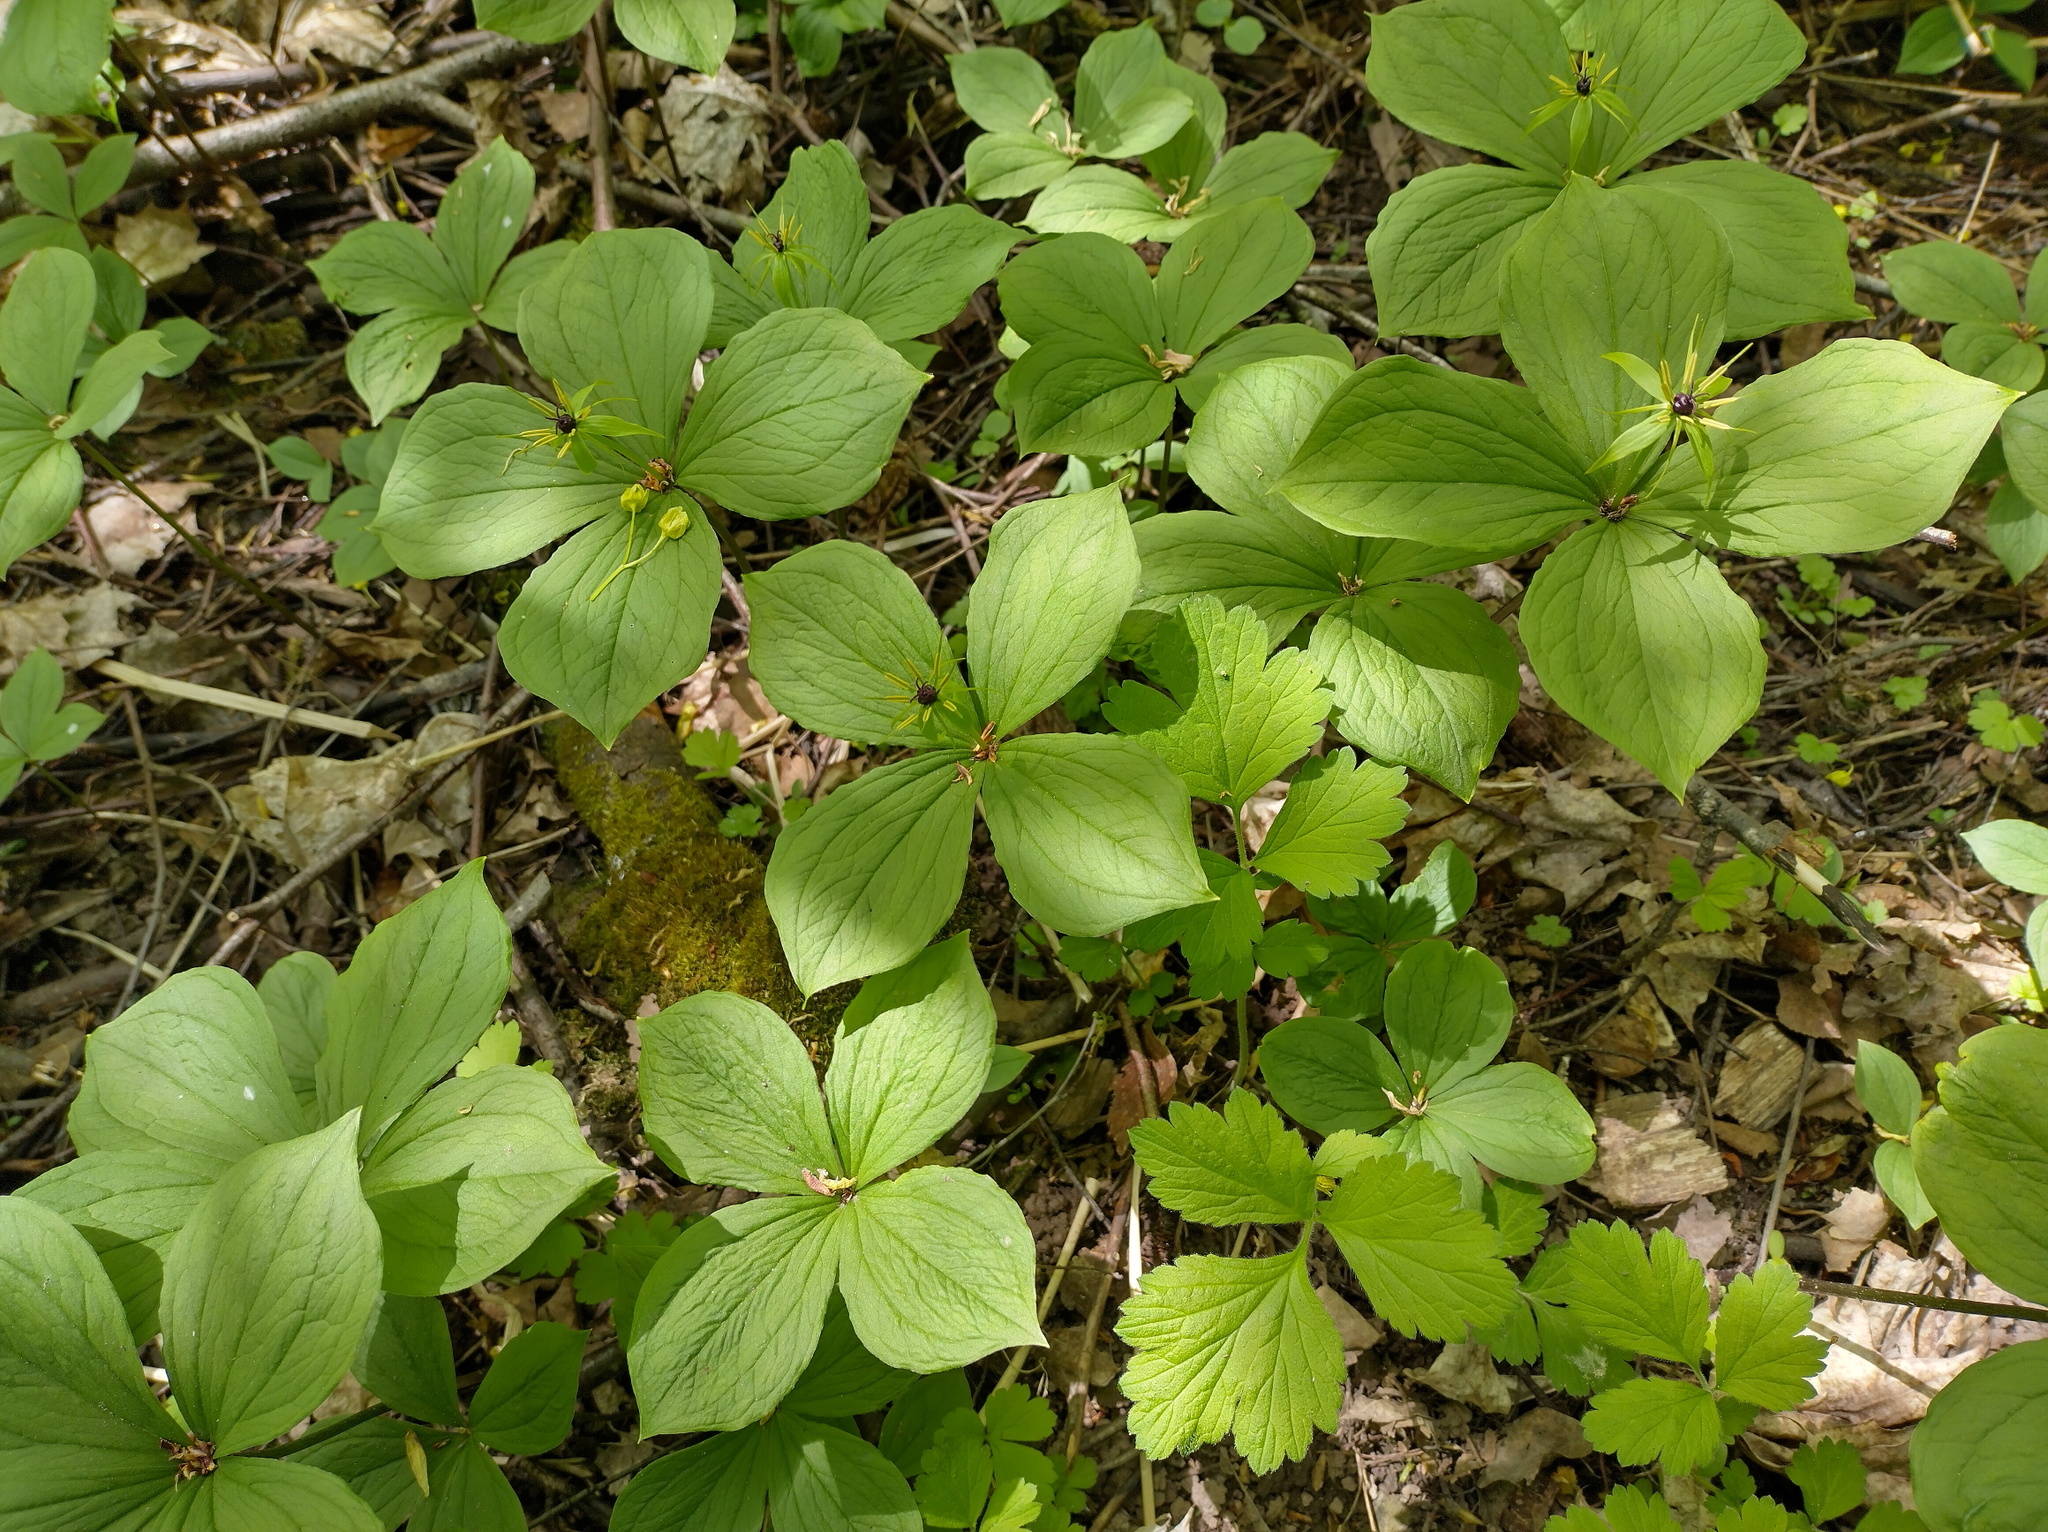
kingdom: Plantae
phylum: Tracheophyta
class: Liliopsida
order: Liliales
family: Melanthiaceae
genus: Paris
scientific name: Paris quadrifolia
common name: Herb-paris
